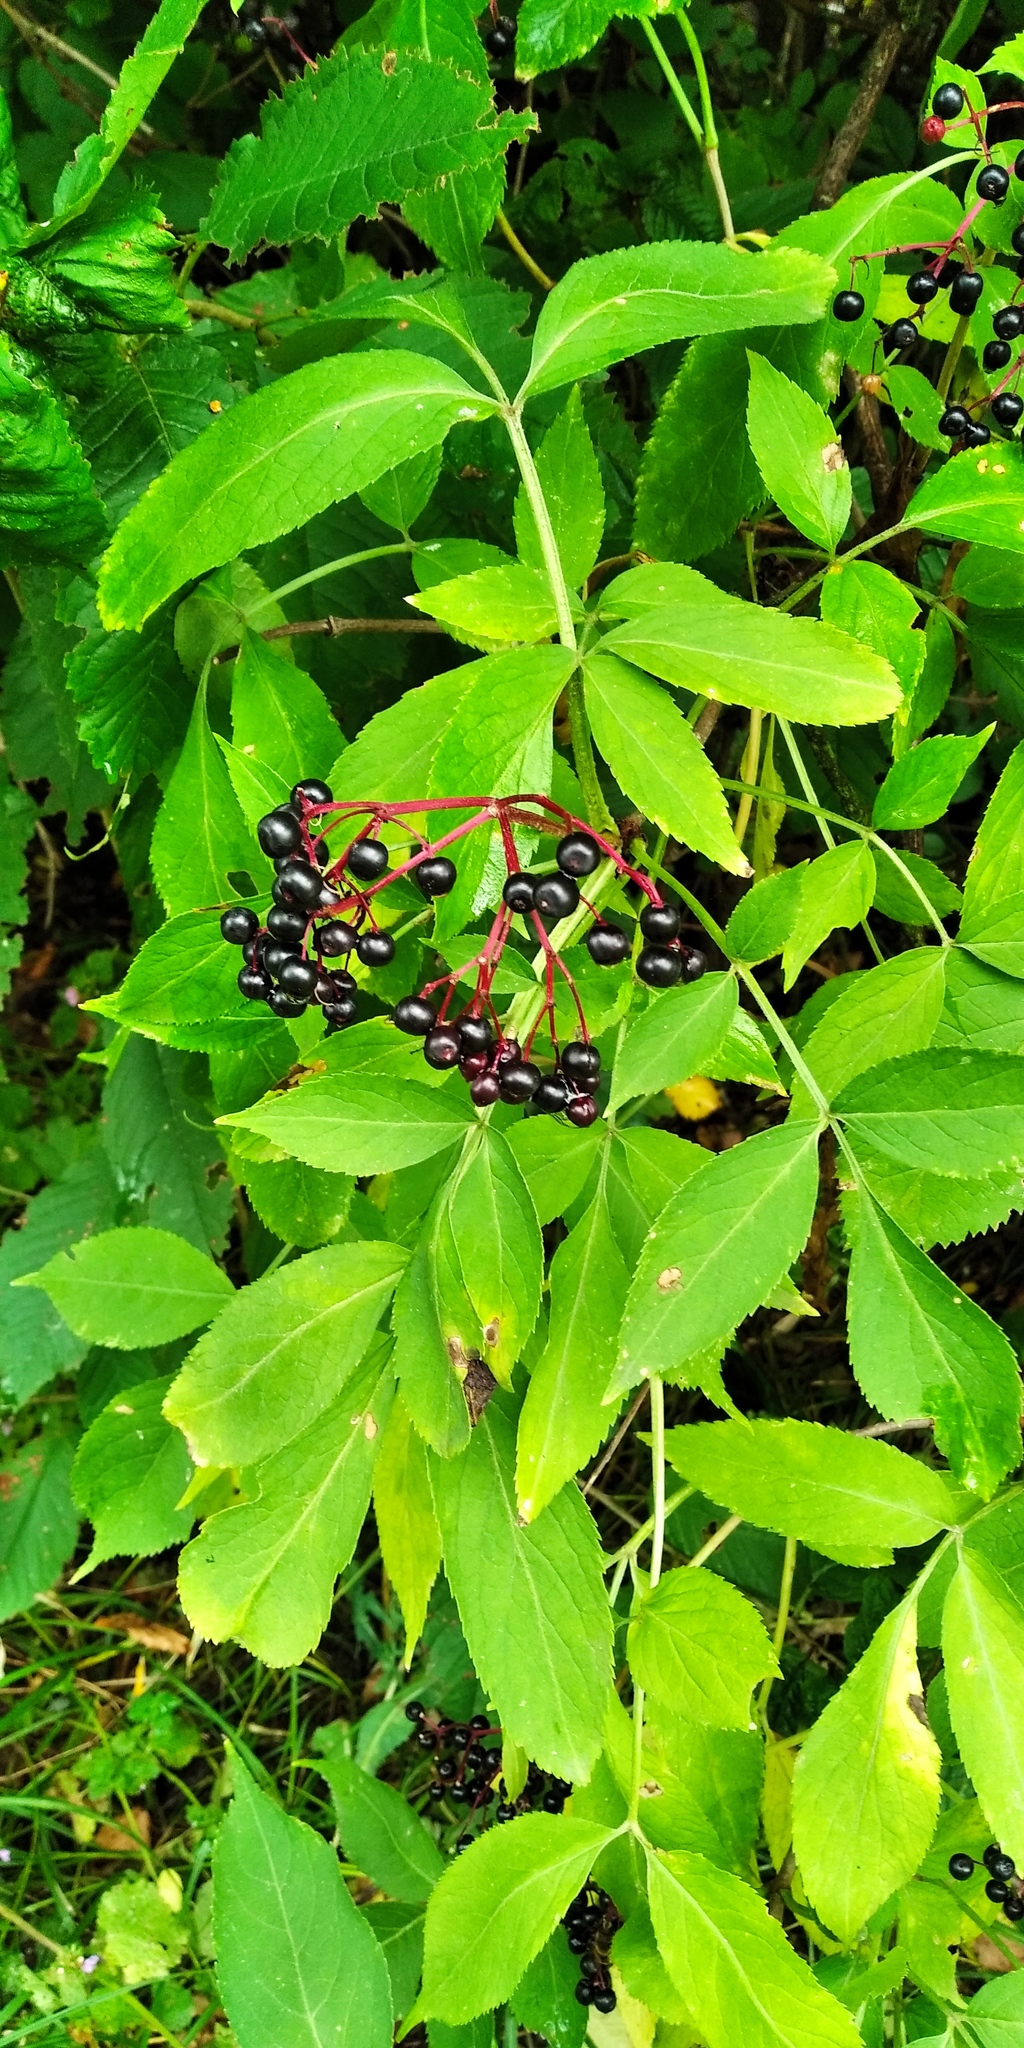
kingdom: Plantae
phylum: Tracheophyta
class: Magnoliopsida
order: Dipsacales
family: Viburnaceae
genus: Sambucus
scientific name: Sambucus nigra
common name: Elder
